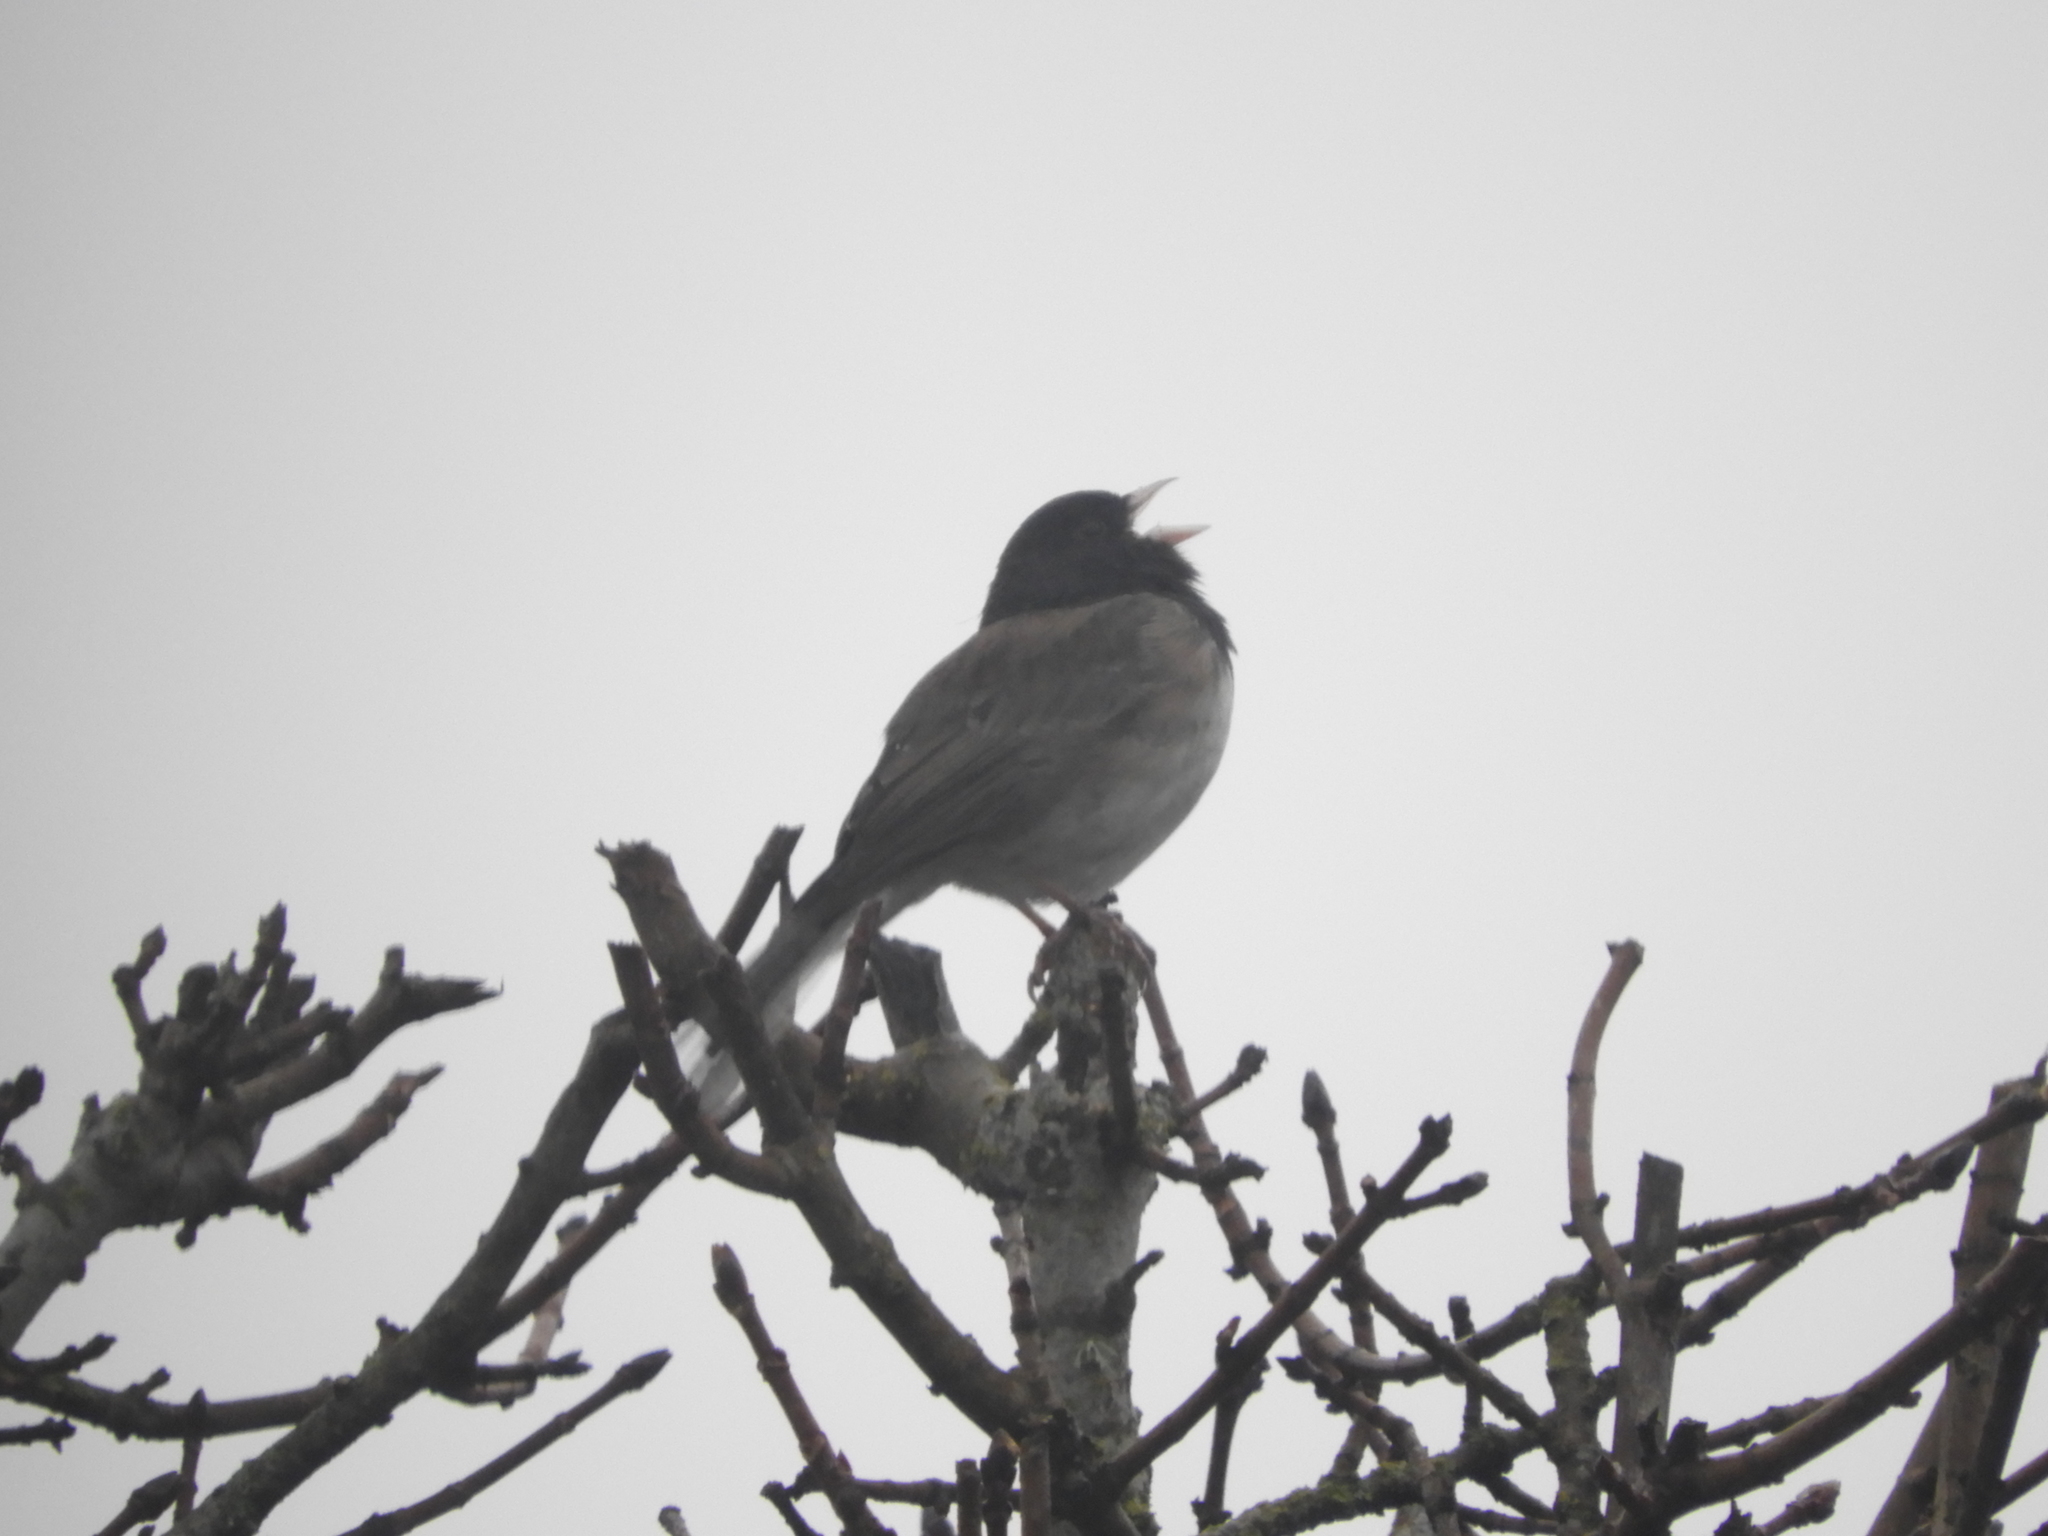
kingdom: Animalia
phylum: Chordata
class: Aves
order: Passeriformes
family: Passerellidae
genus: Junco
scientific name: Junco hyemalis
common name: Dark-eyed junco
